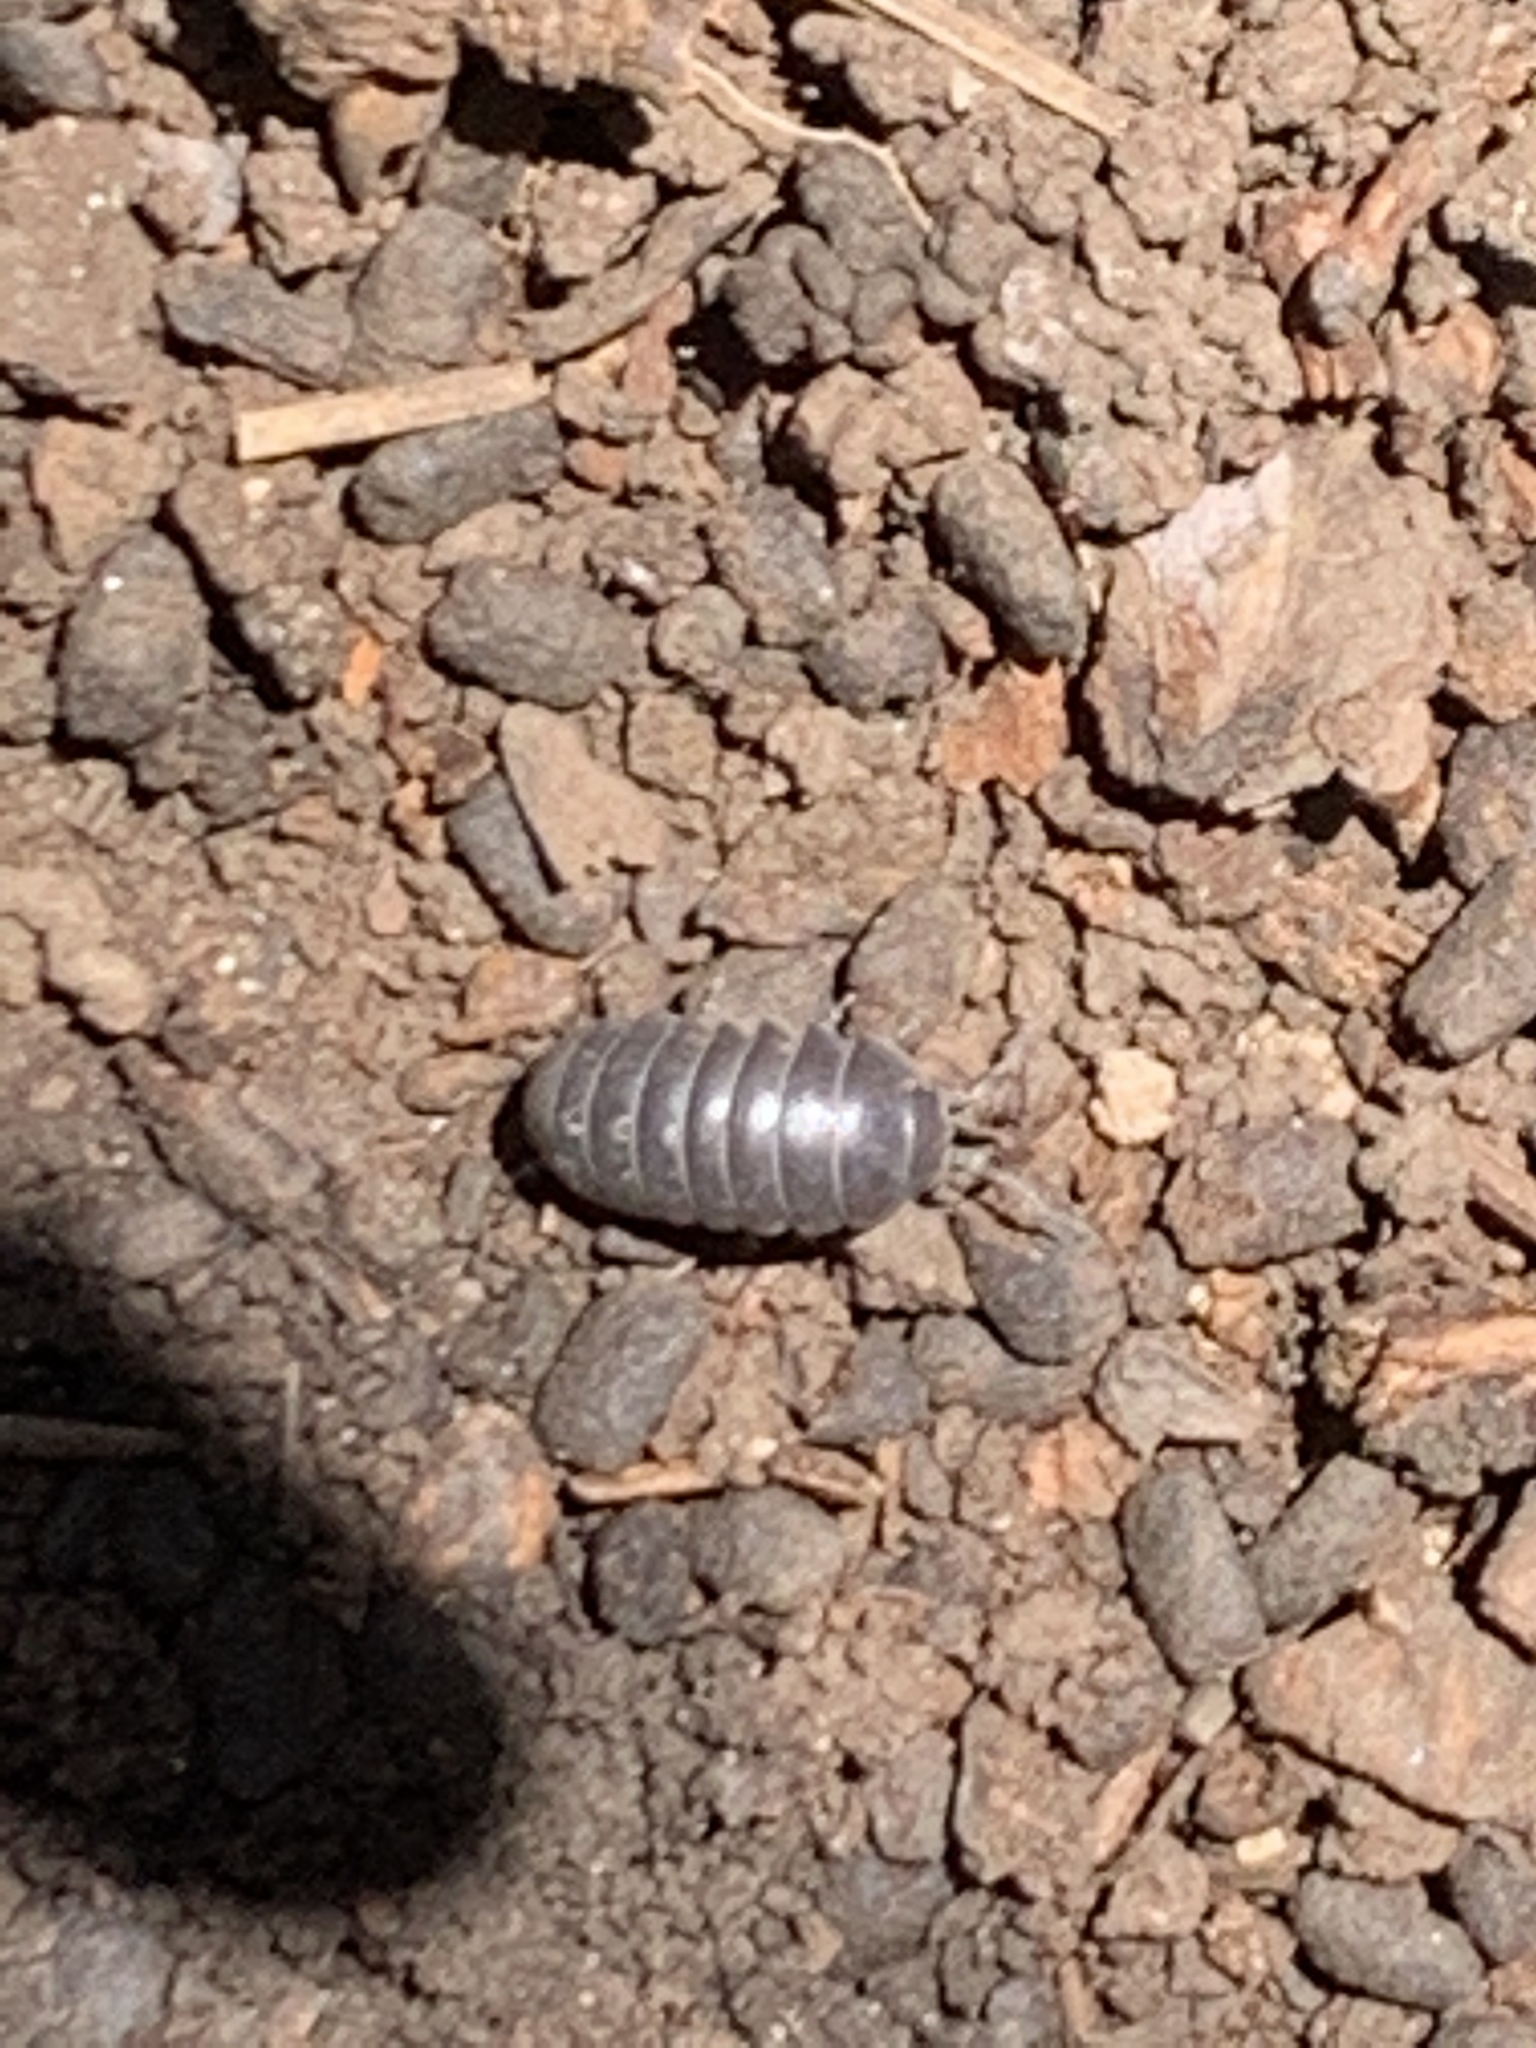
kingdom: Animalia
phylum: Arthropoda
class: Malacostraca
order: Isopoda
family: Armadillidiidae
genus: Armadillidium
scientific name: Armadillidium vulgare
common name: Common pill woodlouse
